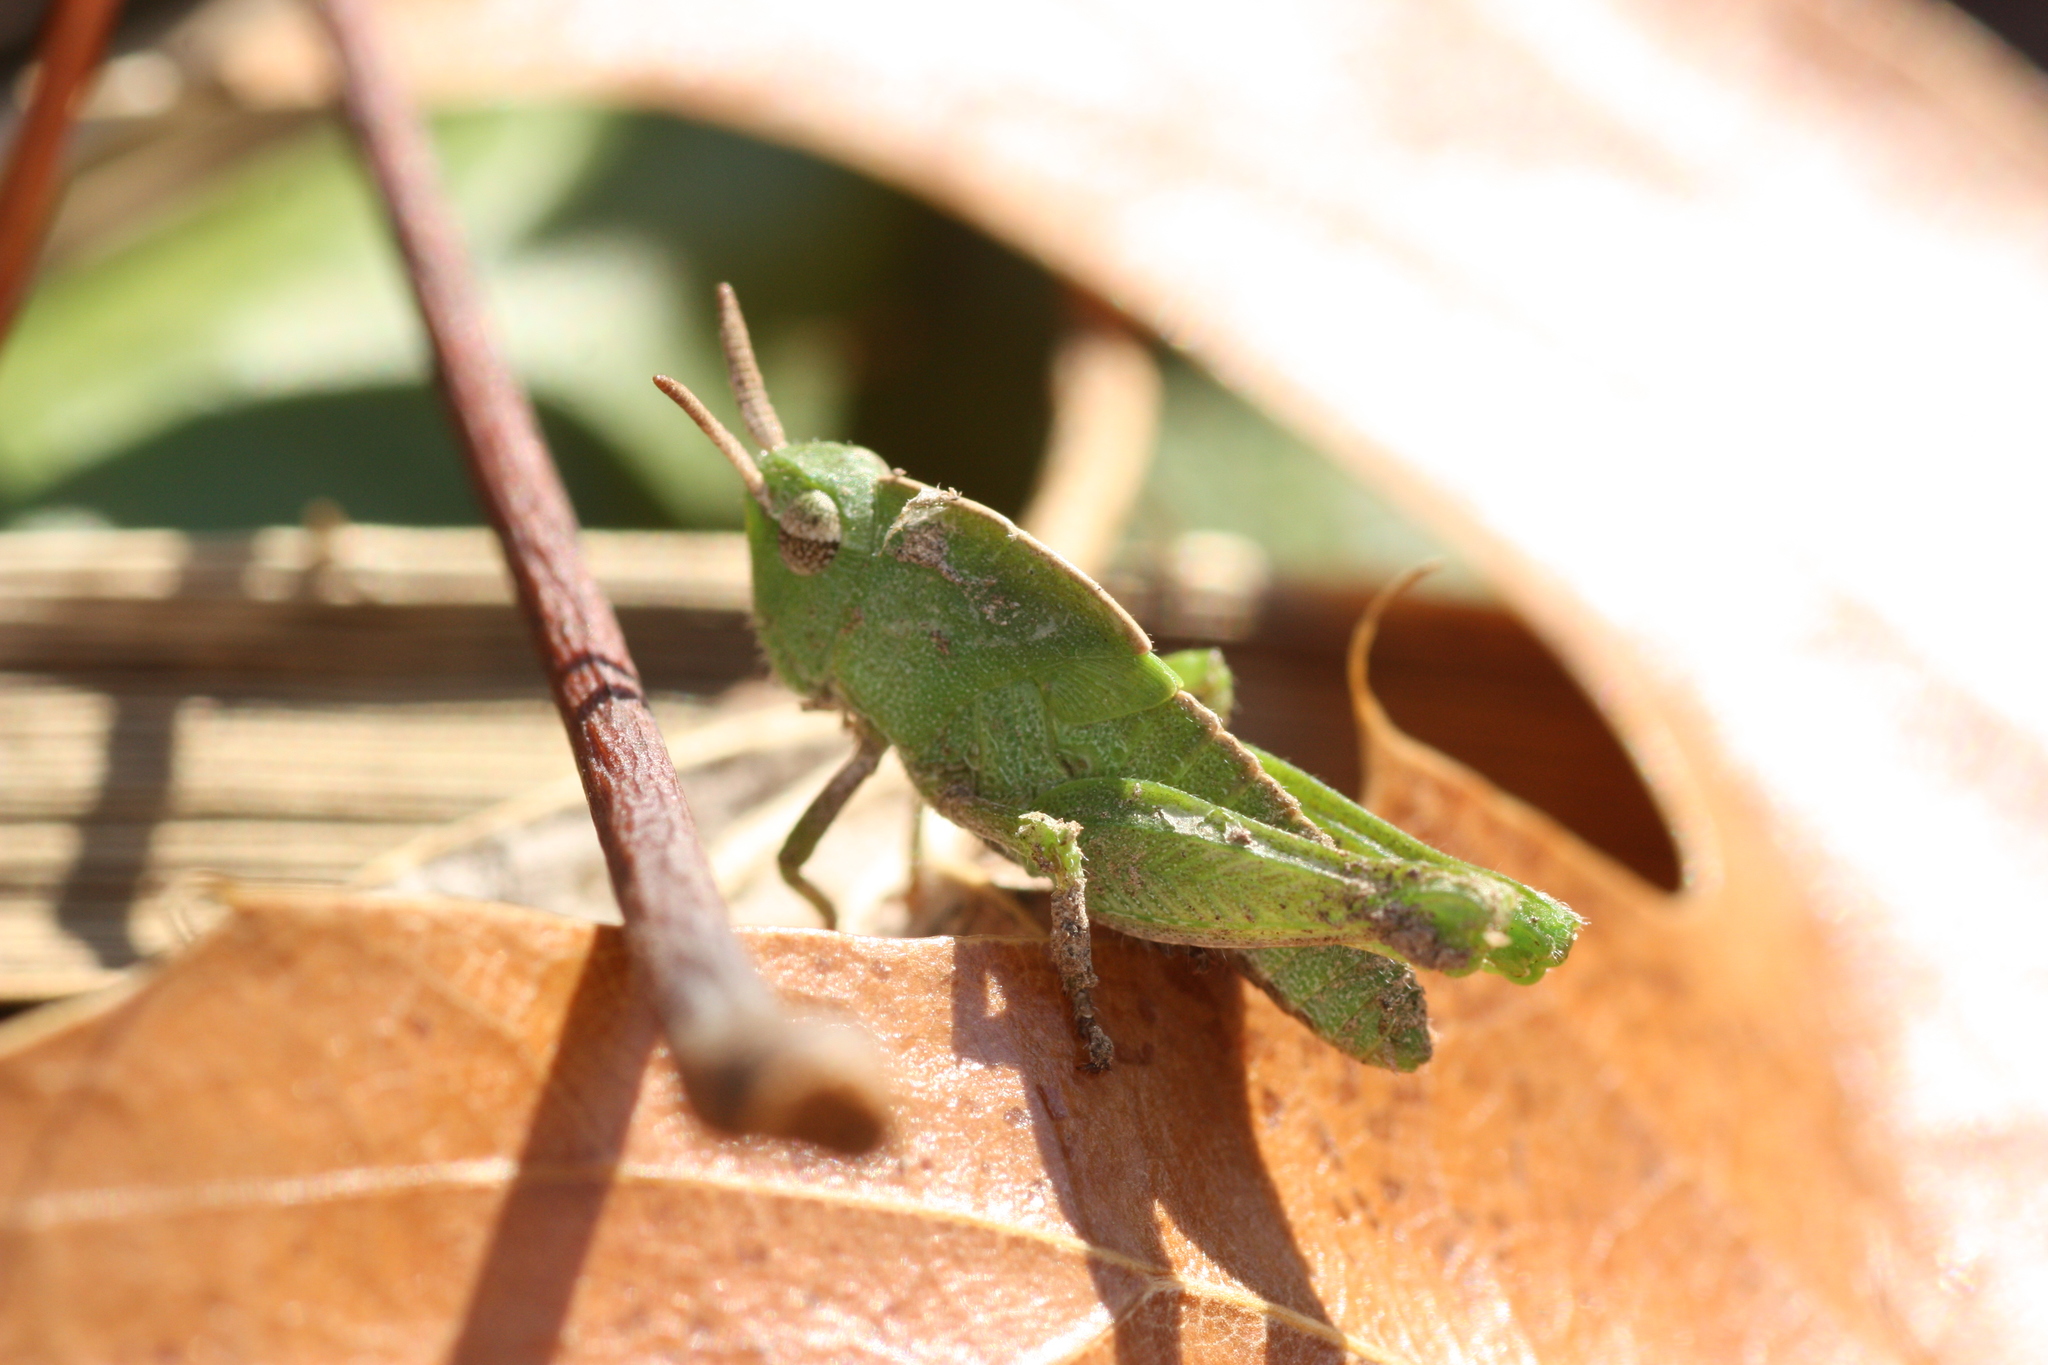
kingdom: Animalia
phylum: Arthropoda
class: Insecta
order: Orthoptera
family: Acrididae
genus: Chortophaga
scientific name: Chortophaga viridifasciata
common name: Green-striped grasshopper
